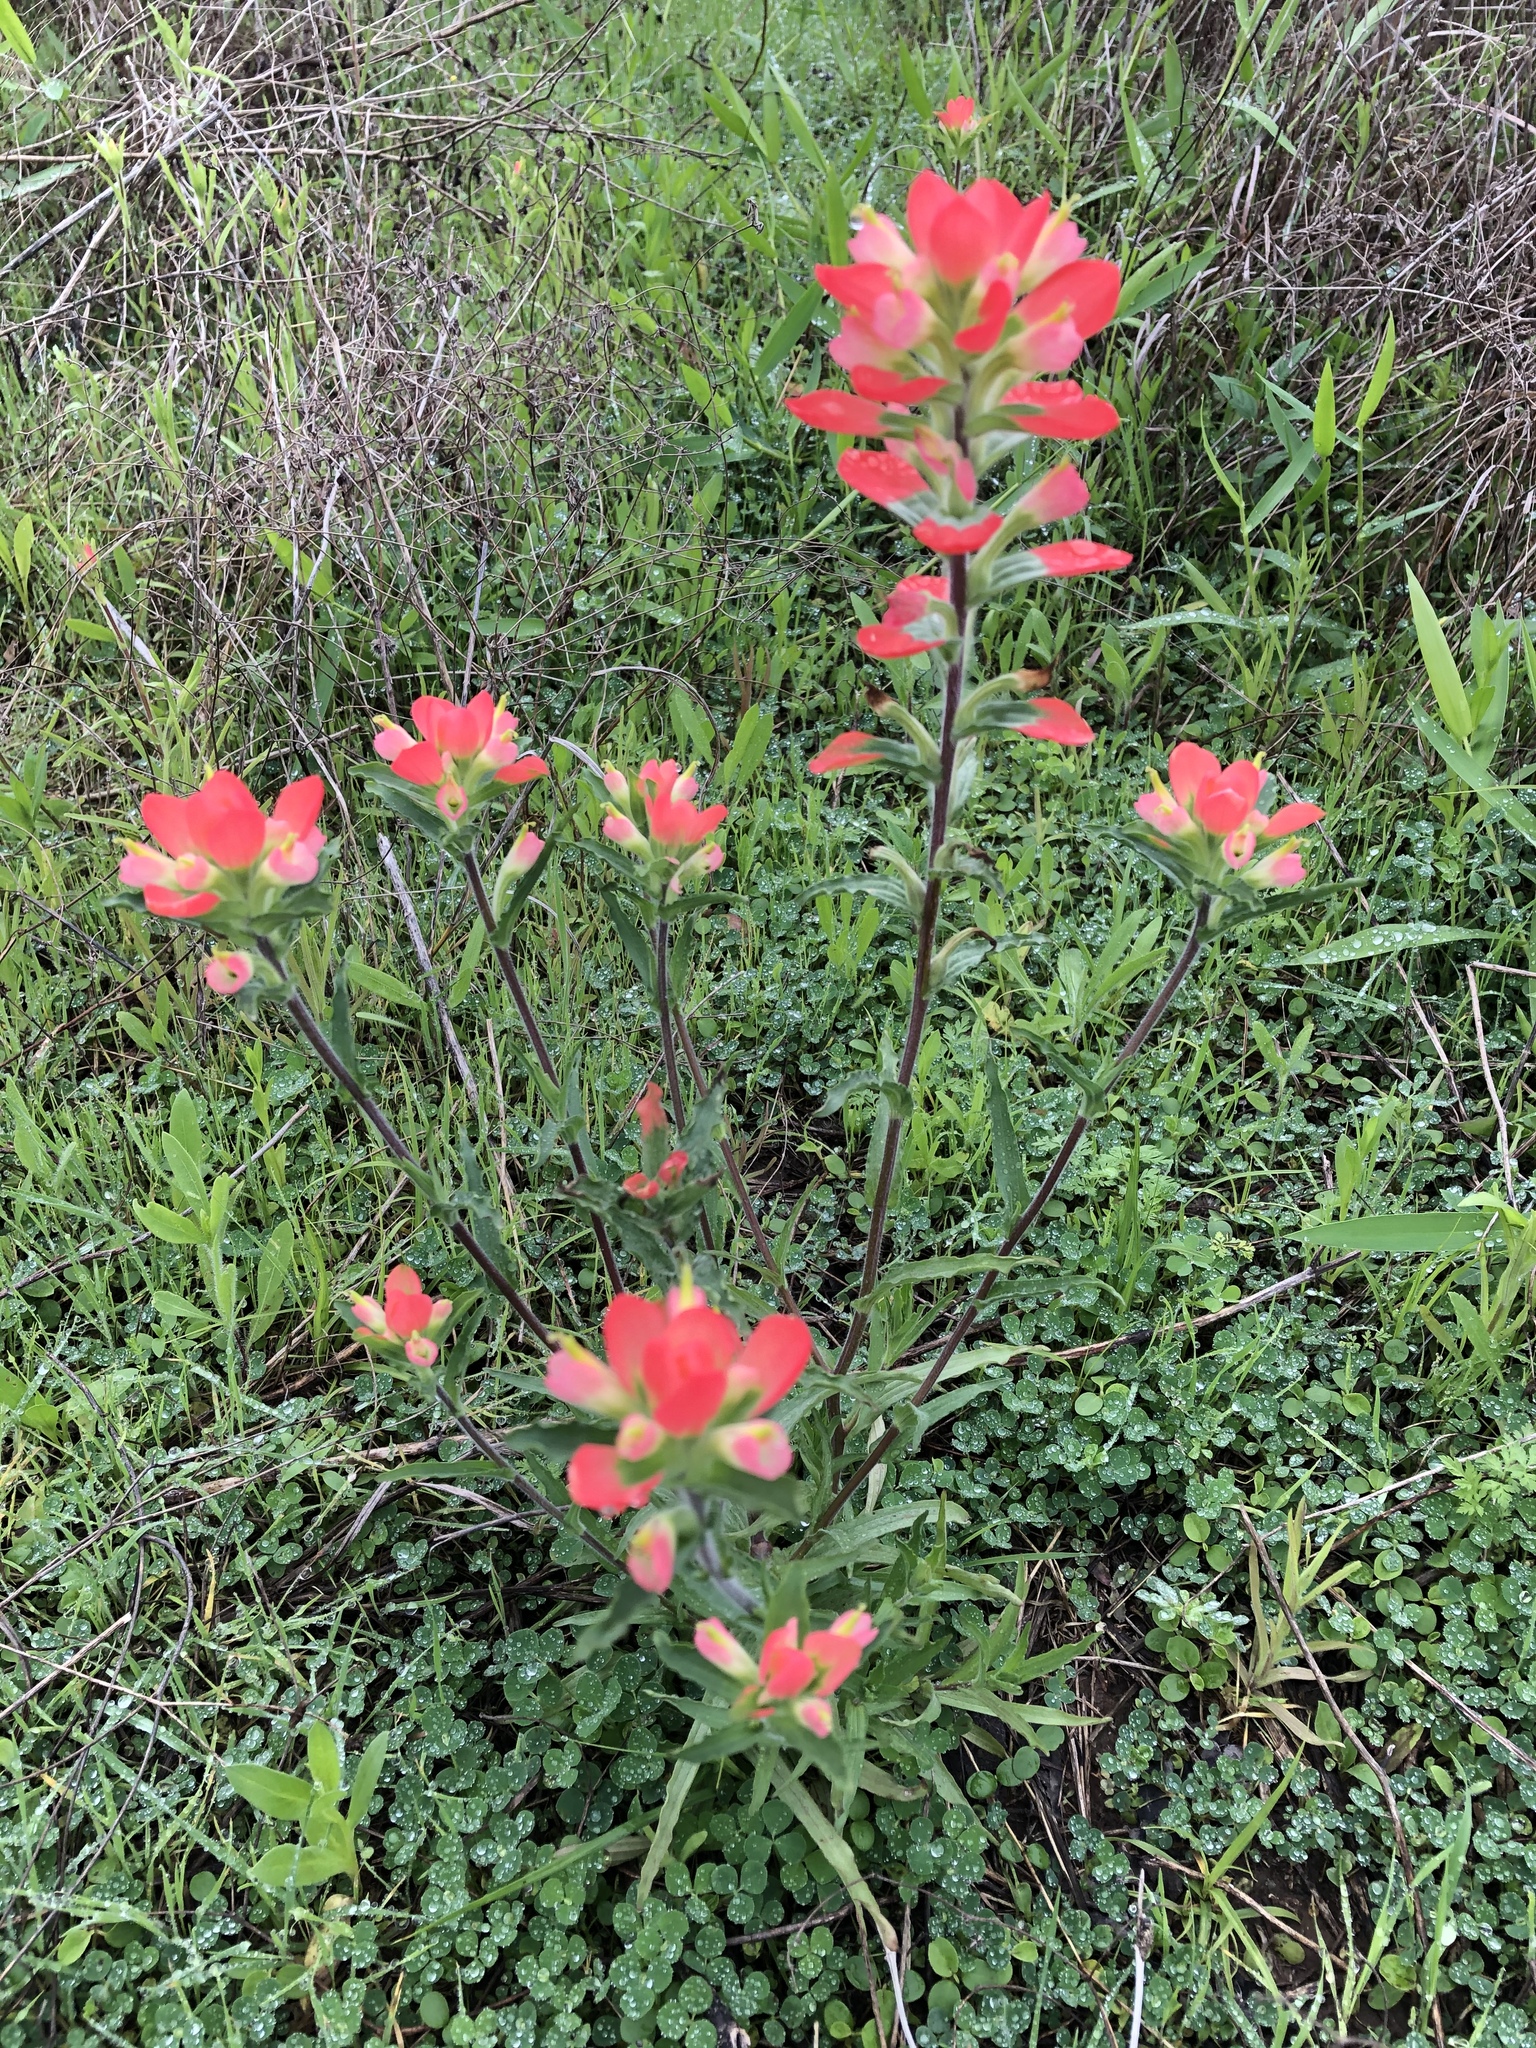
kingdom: Plantae
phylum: Tracheophyta
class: Magnoliopsida
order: Lamiales
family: Orobanchaceae
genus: Castilleja
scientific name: Castilleja indivisa
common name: Texas paintbrush
